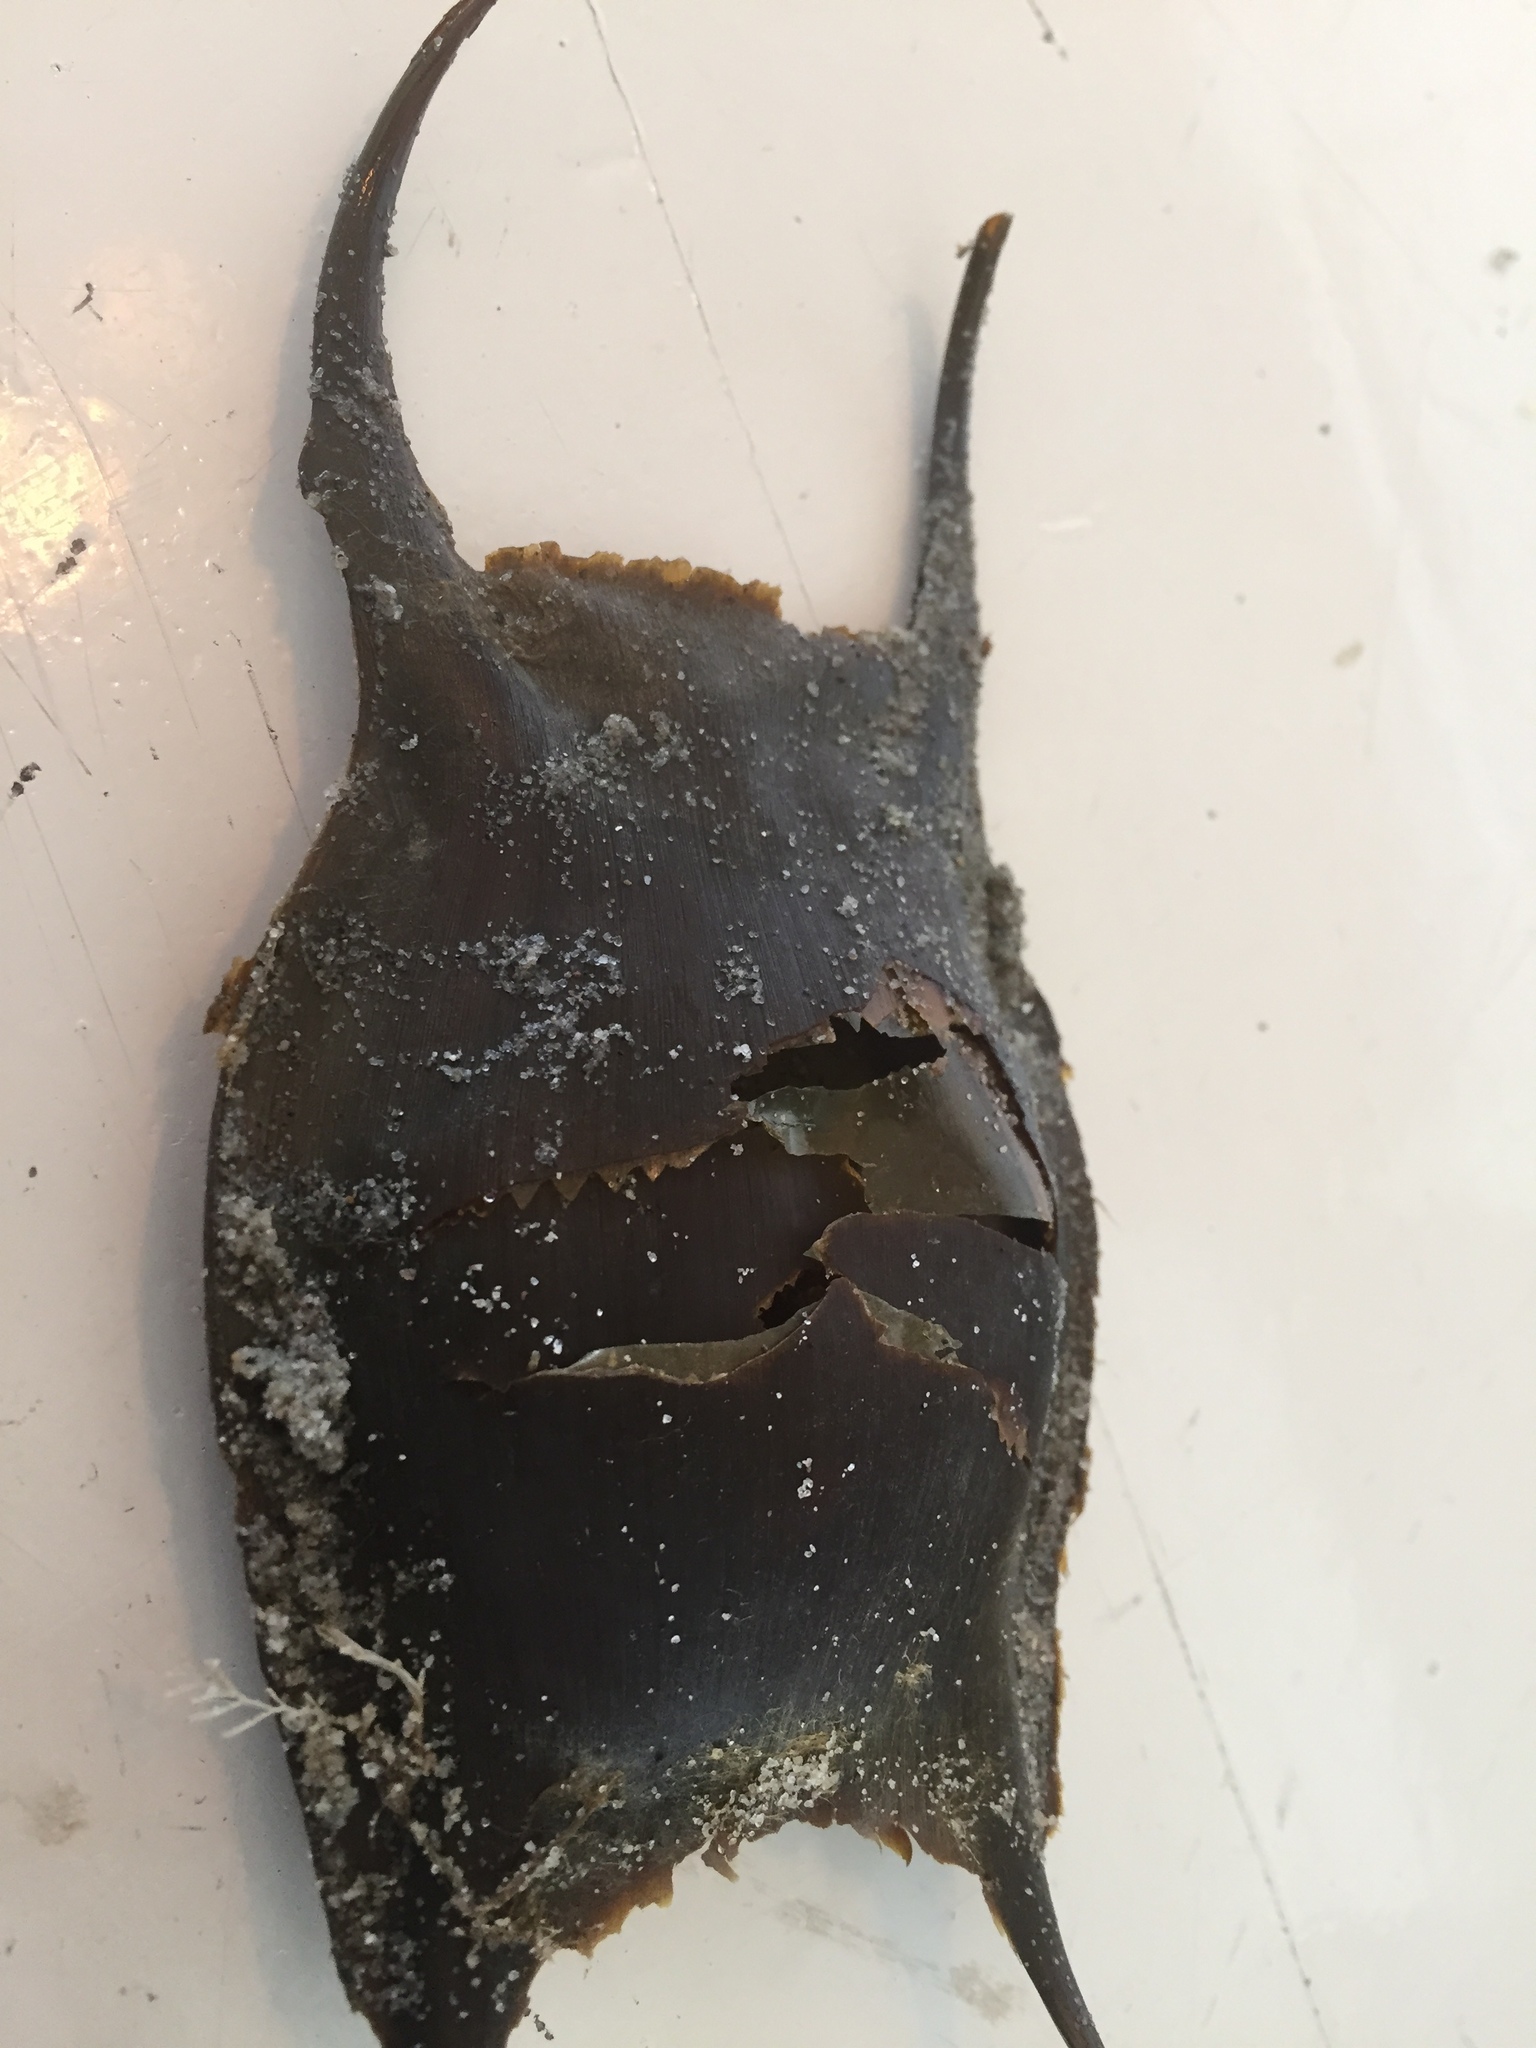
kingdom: Animalia
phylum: Chordata
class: Elasmobranchii
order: Rajiformes
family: Rajidae
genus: Raja
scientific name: Raja clavata
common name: Thornback ray
